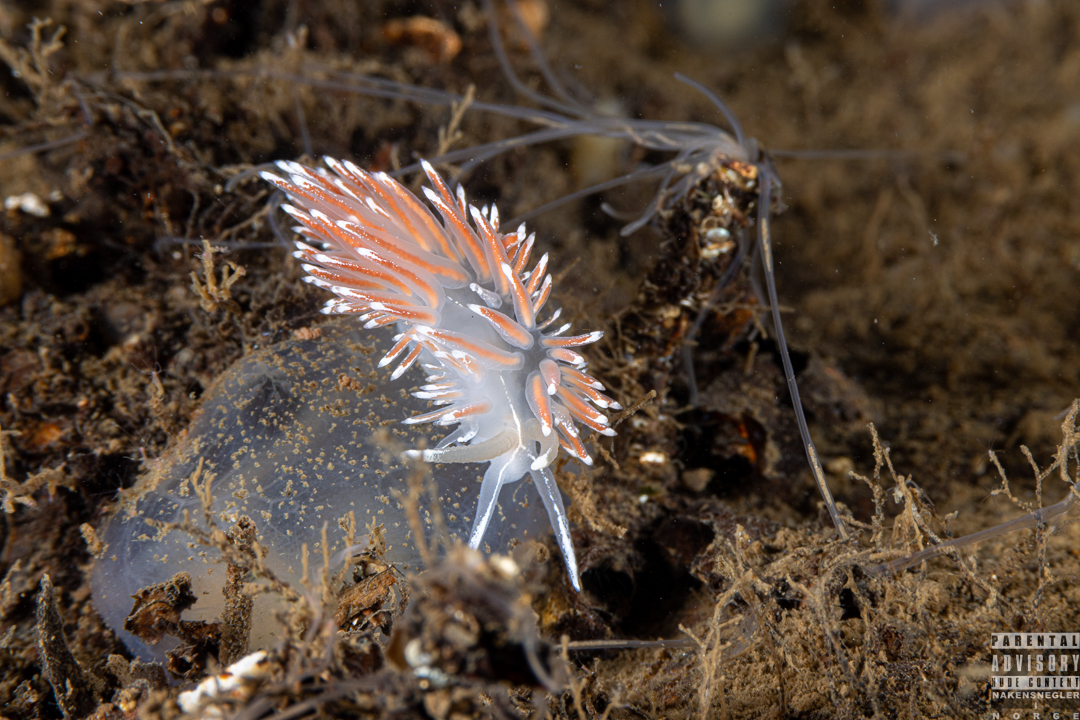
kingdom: Animalia
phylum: Mollusca
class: Gastropoda
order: Nudibranchia
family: Coryphellidae
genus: Coryphella
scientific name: Coryphella lineata
